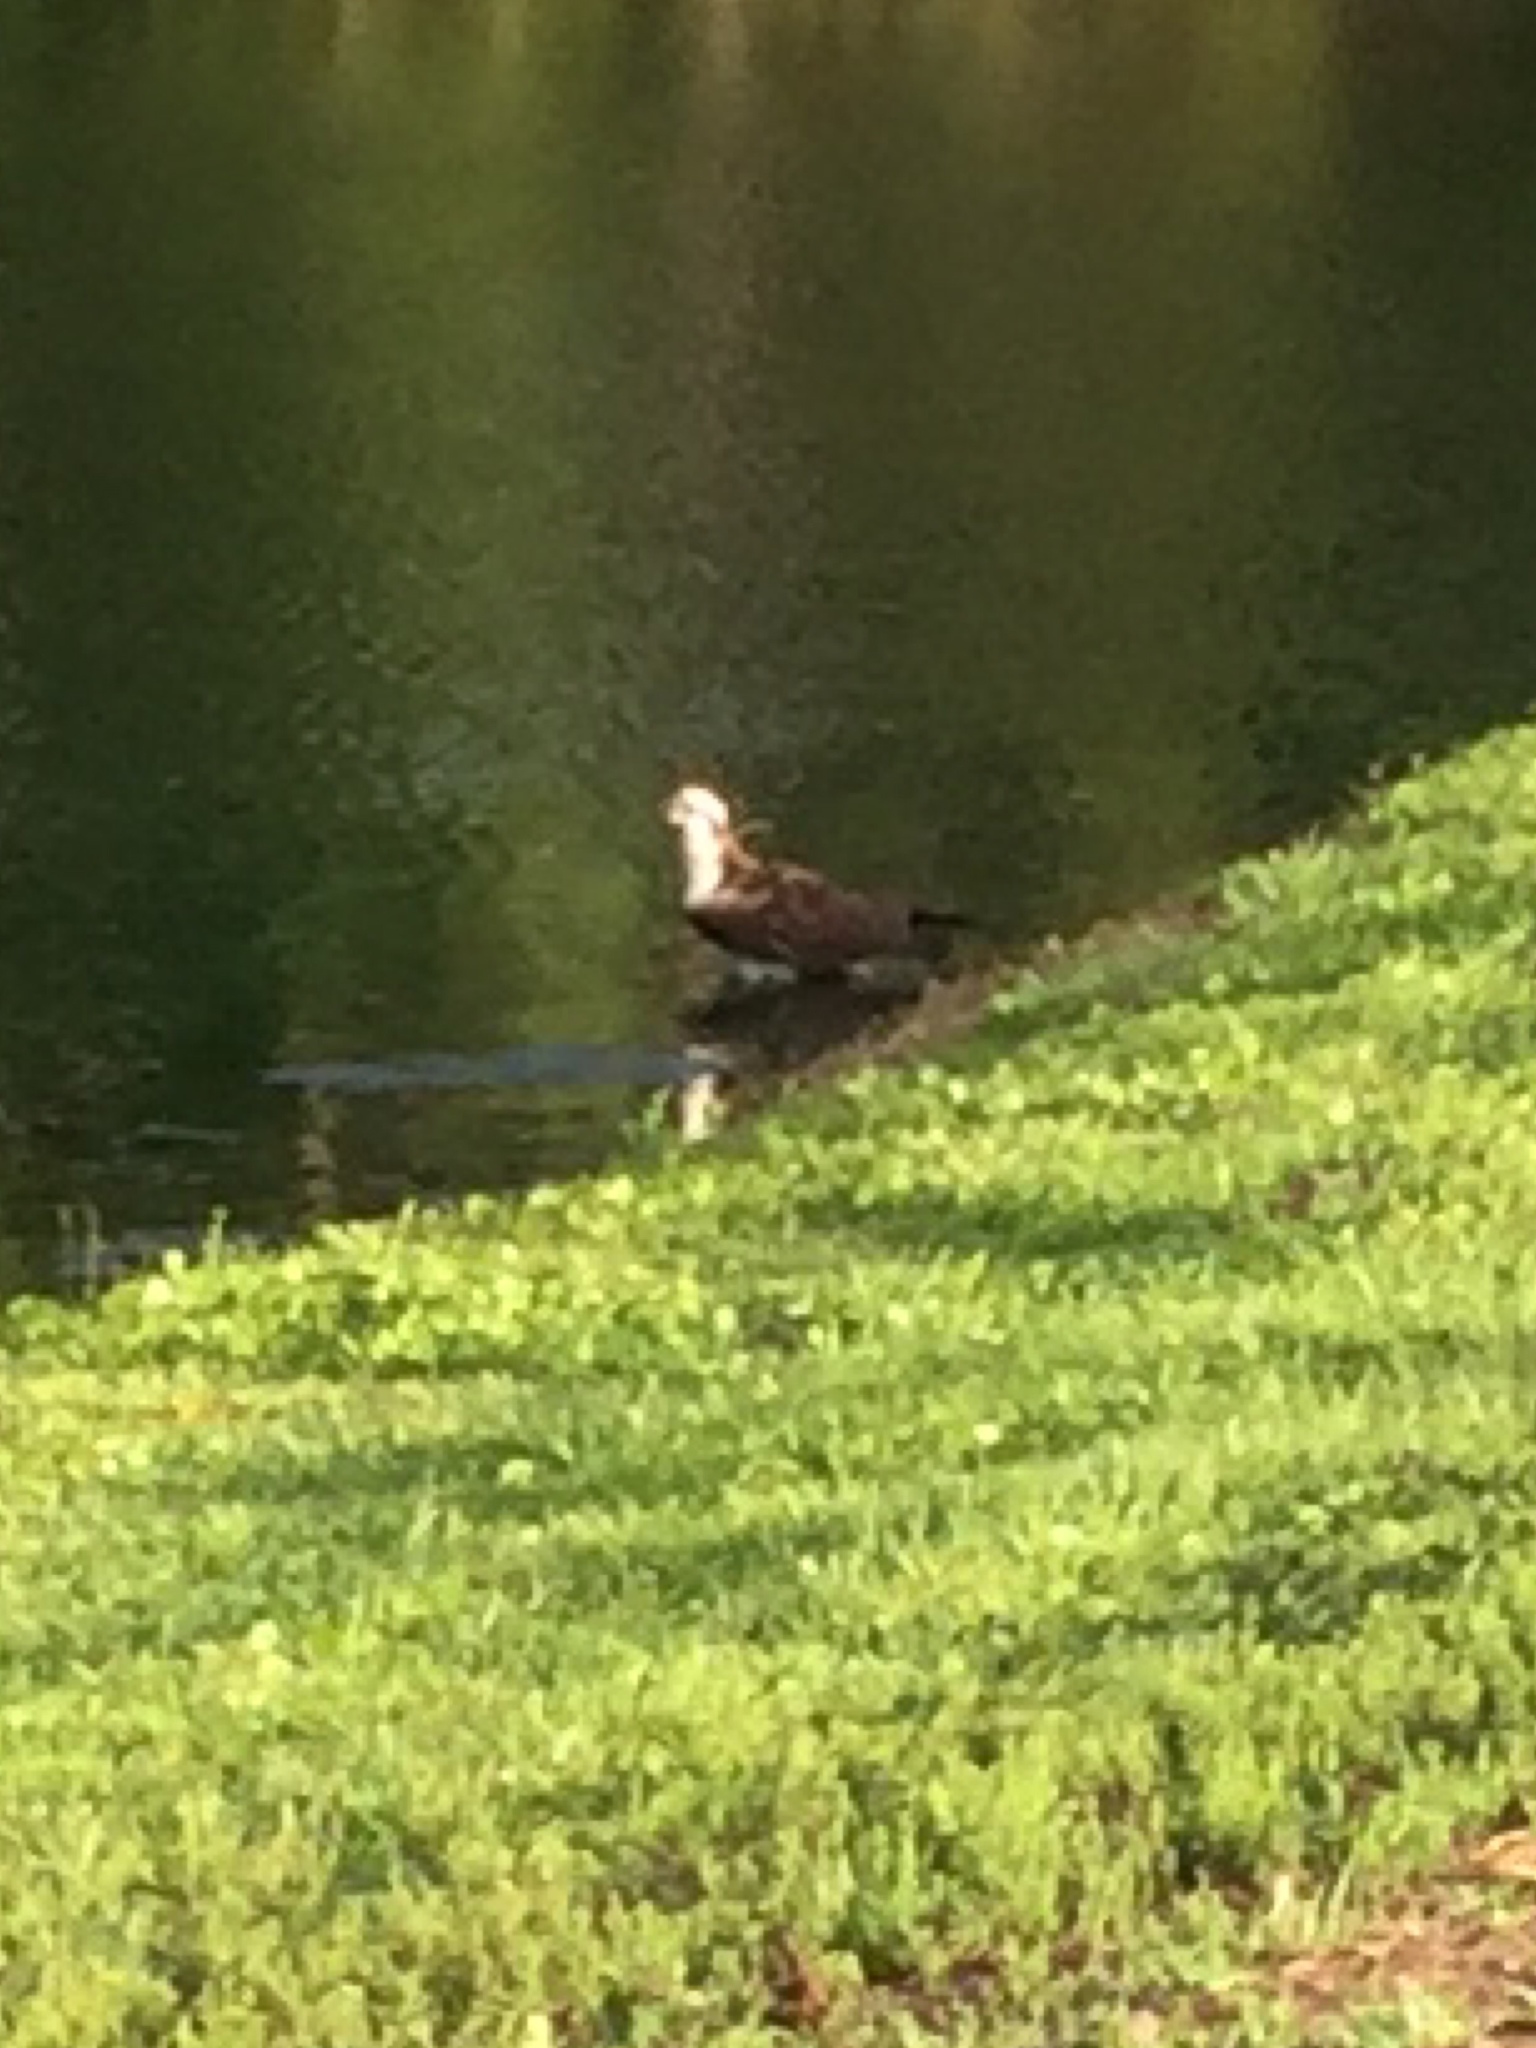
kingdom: Animalia
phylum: Chordata
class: Aves
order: Accipitriformes
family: Pandionidae
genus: Pandion
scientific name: Pandion haliaetus
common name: Osprey
